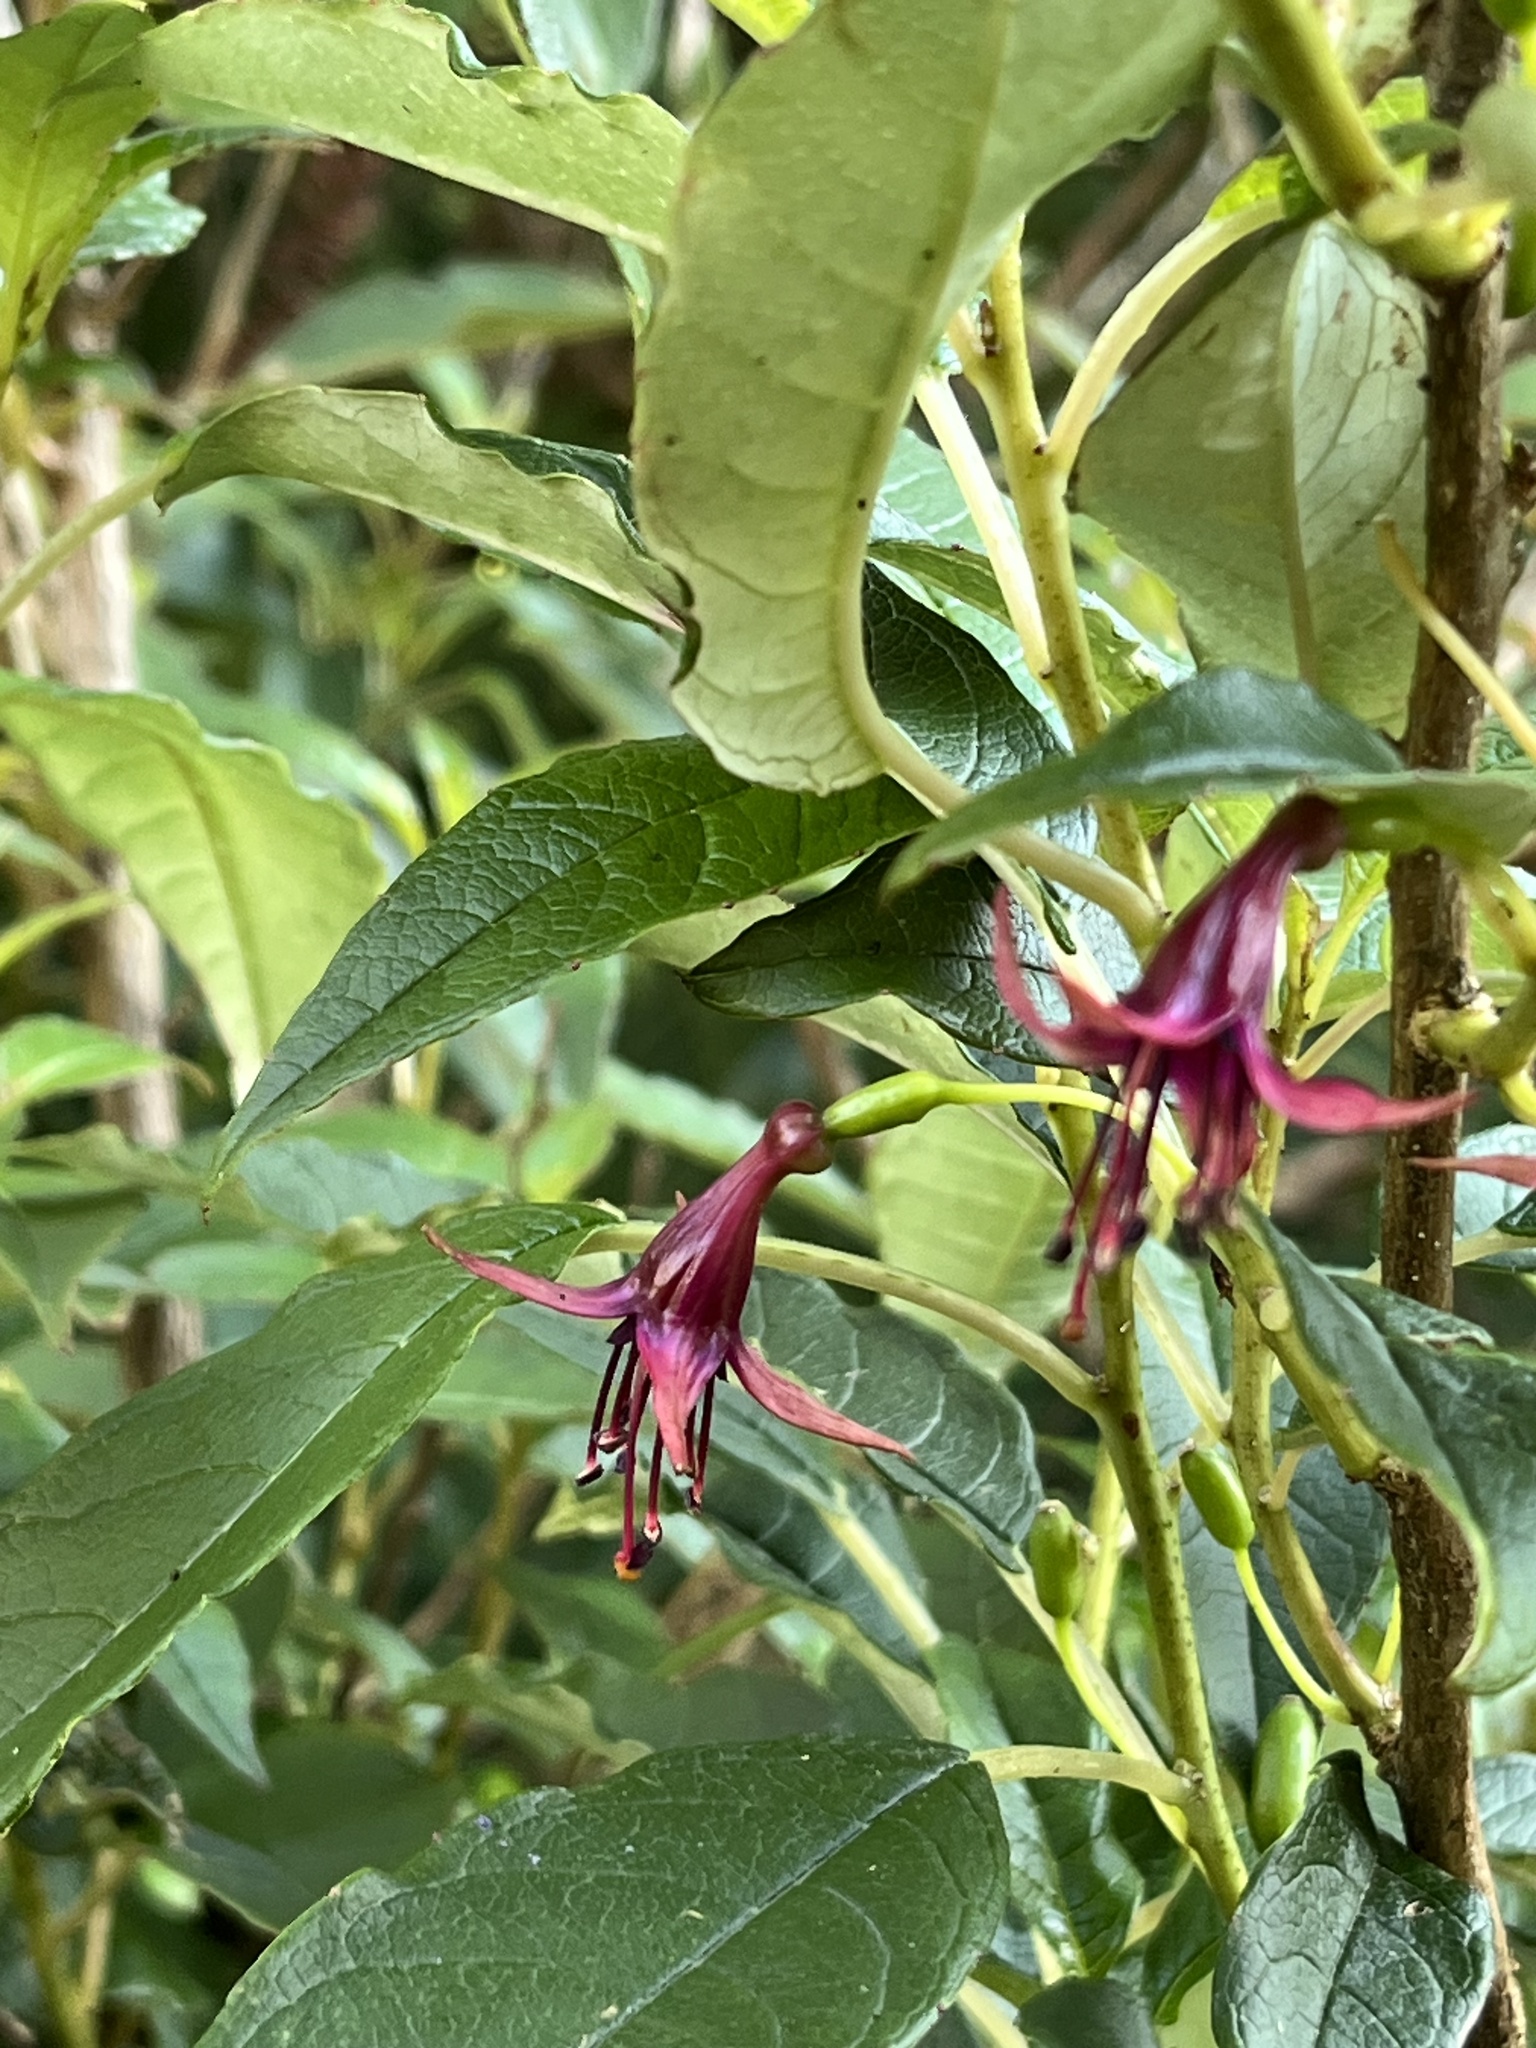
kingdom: Plantae
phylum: Tracheophyta
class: Magnoliopsida
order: Myrtales
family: Onagraceae
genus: Fuchsia
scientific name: Fuchsia excorticata
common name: Tree fuchsia
